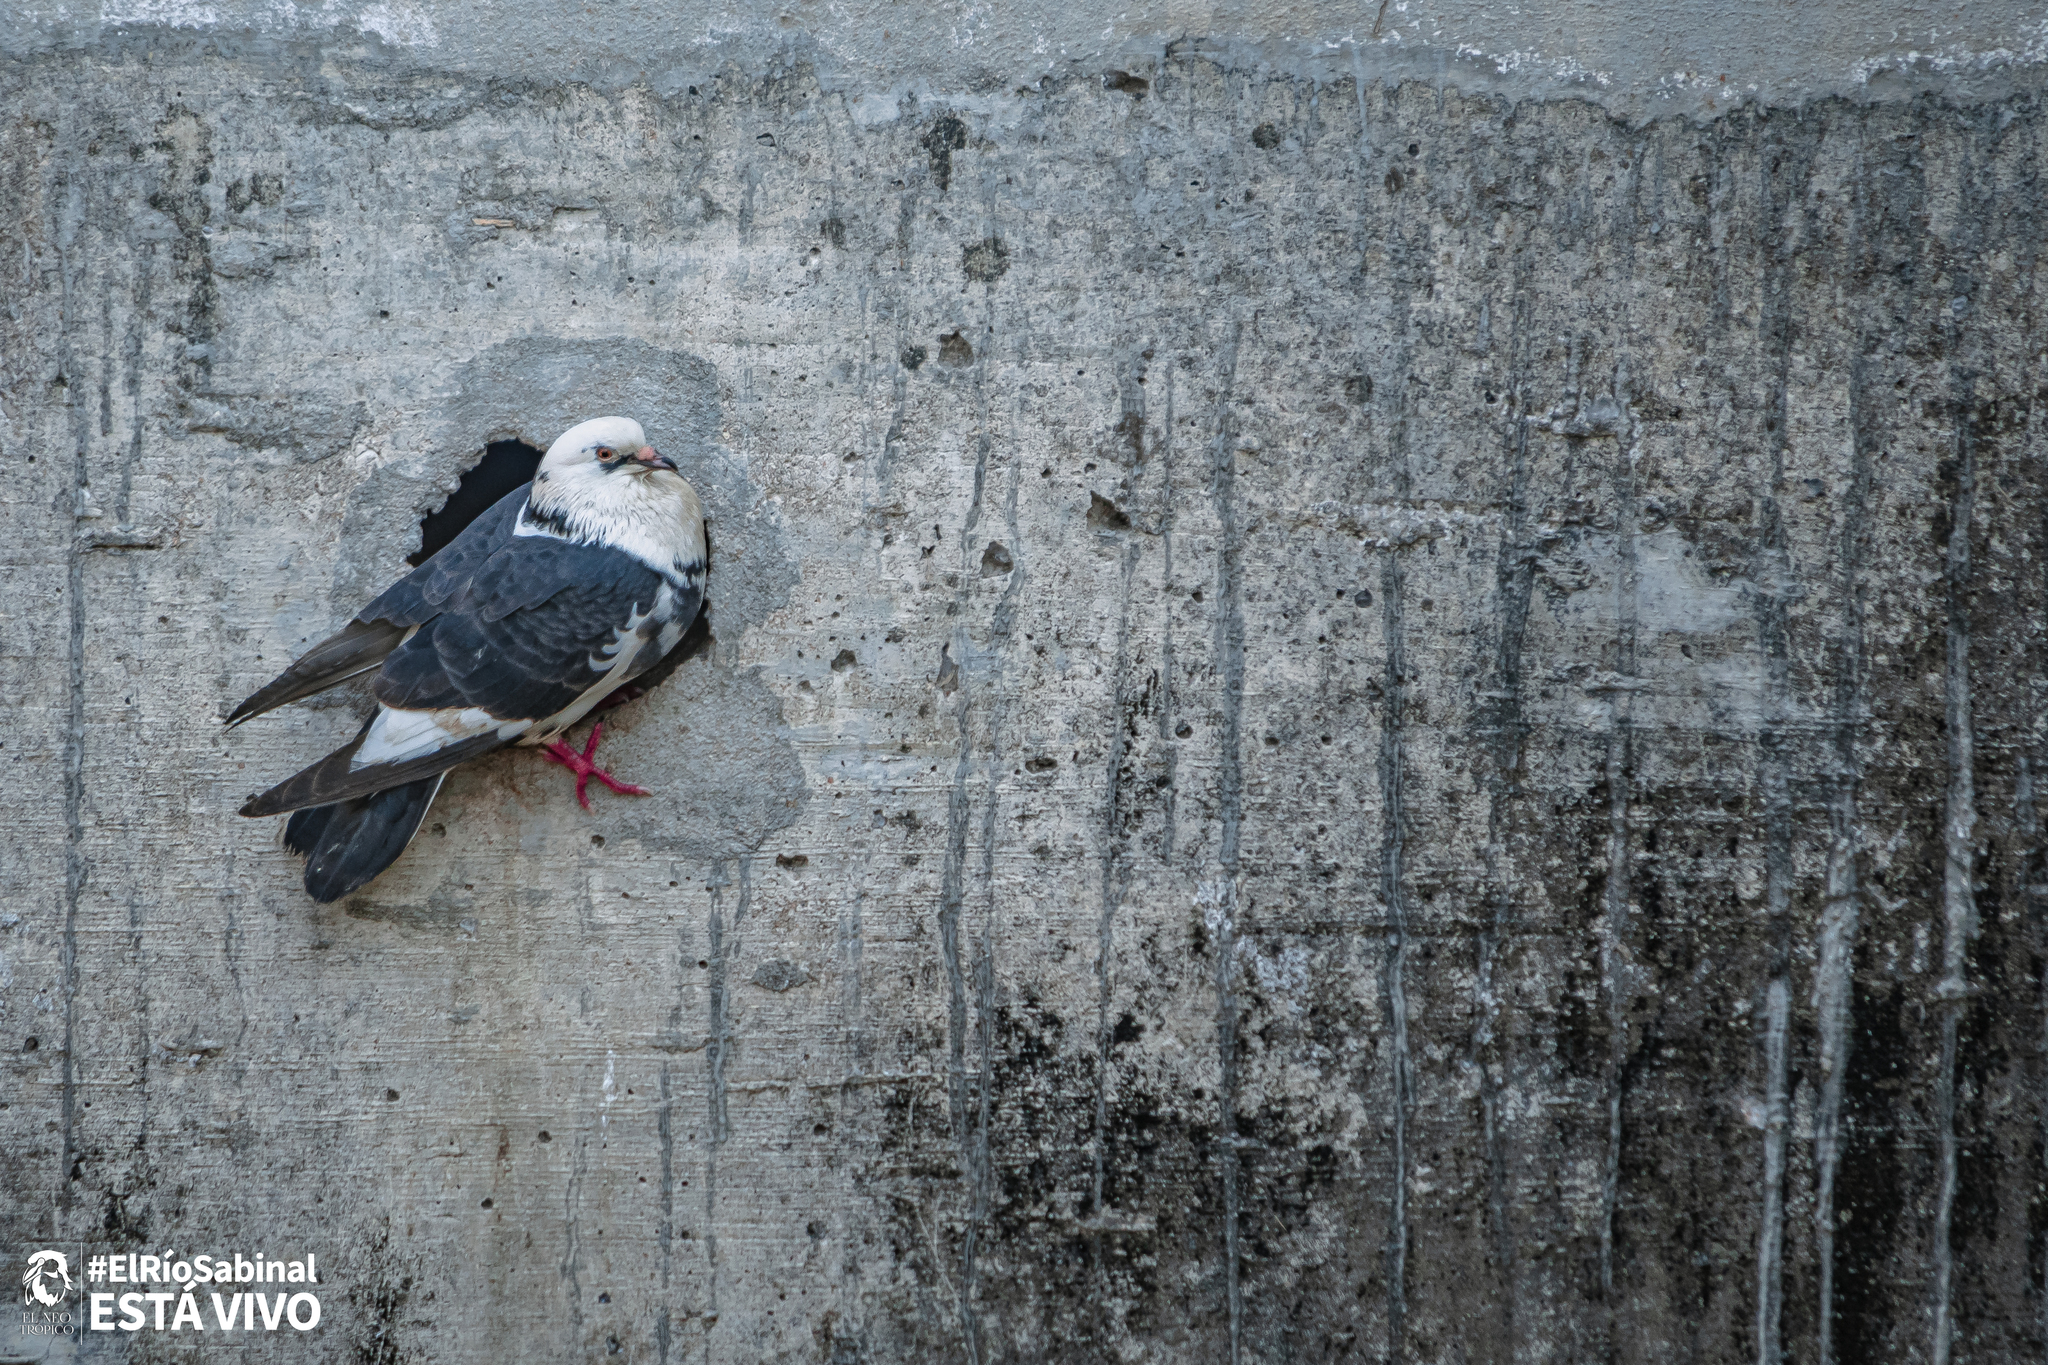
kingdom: Animalia
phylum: Chordata
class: Aves
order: Columbiformes
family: Columbidae
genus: Columba
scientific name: Columba livia
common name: Rock pigeon
